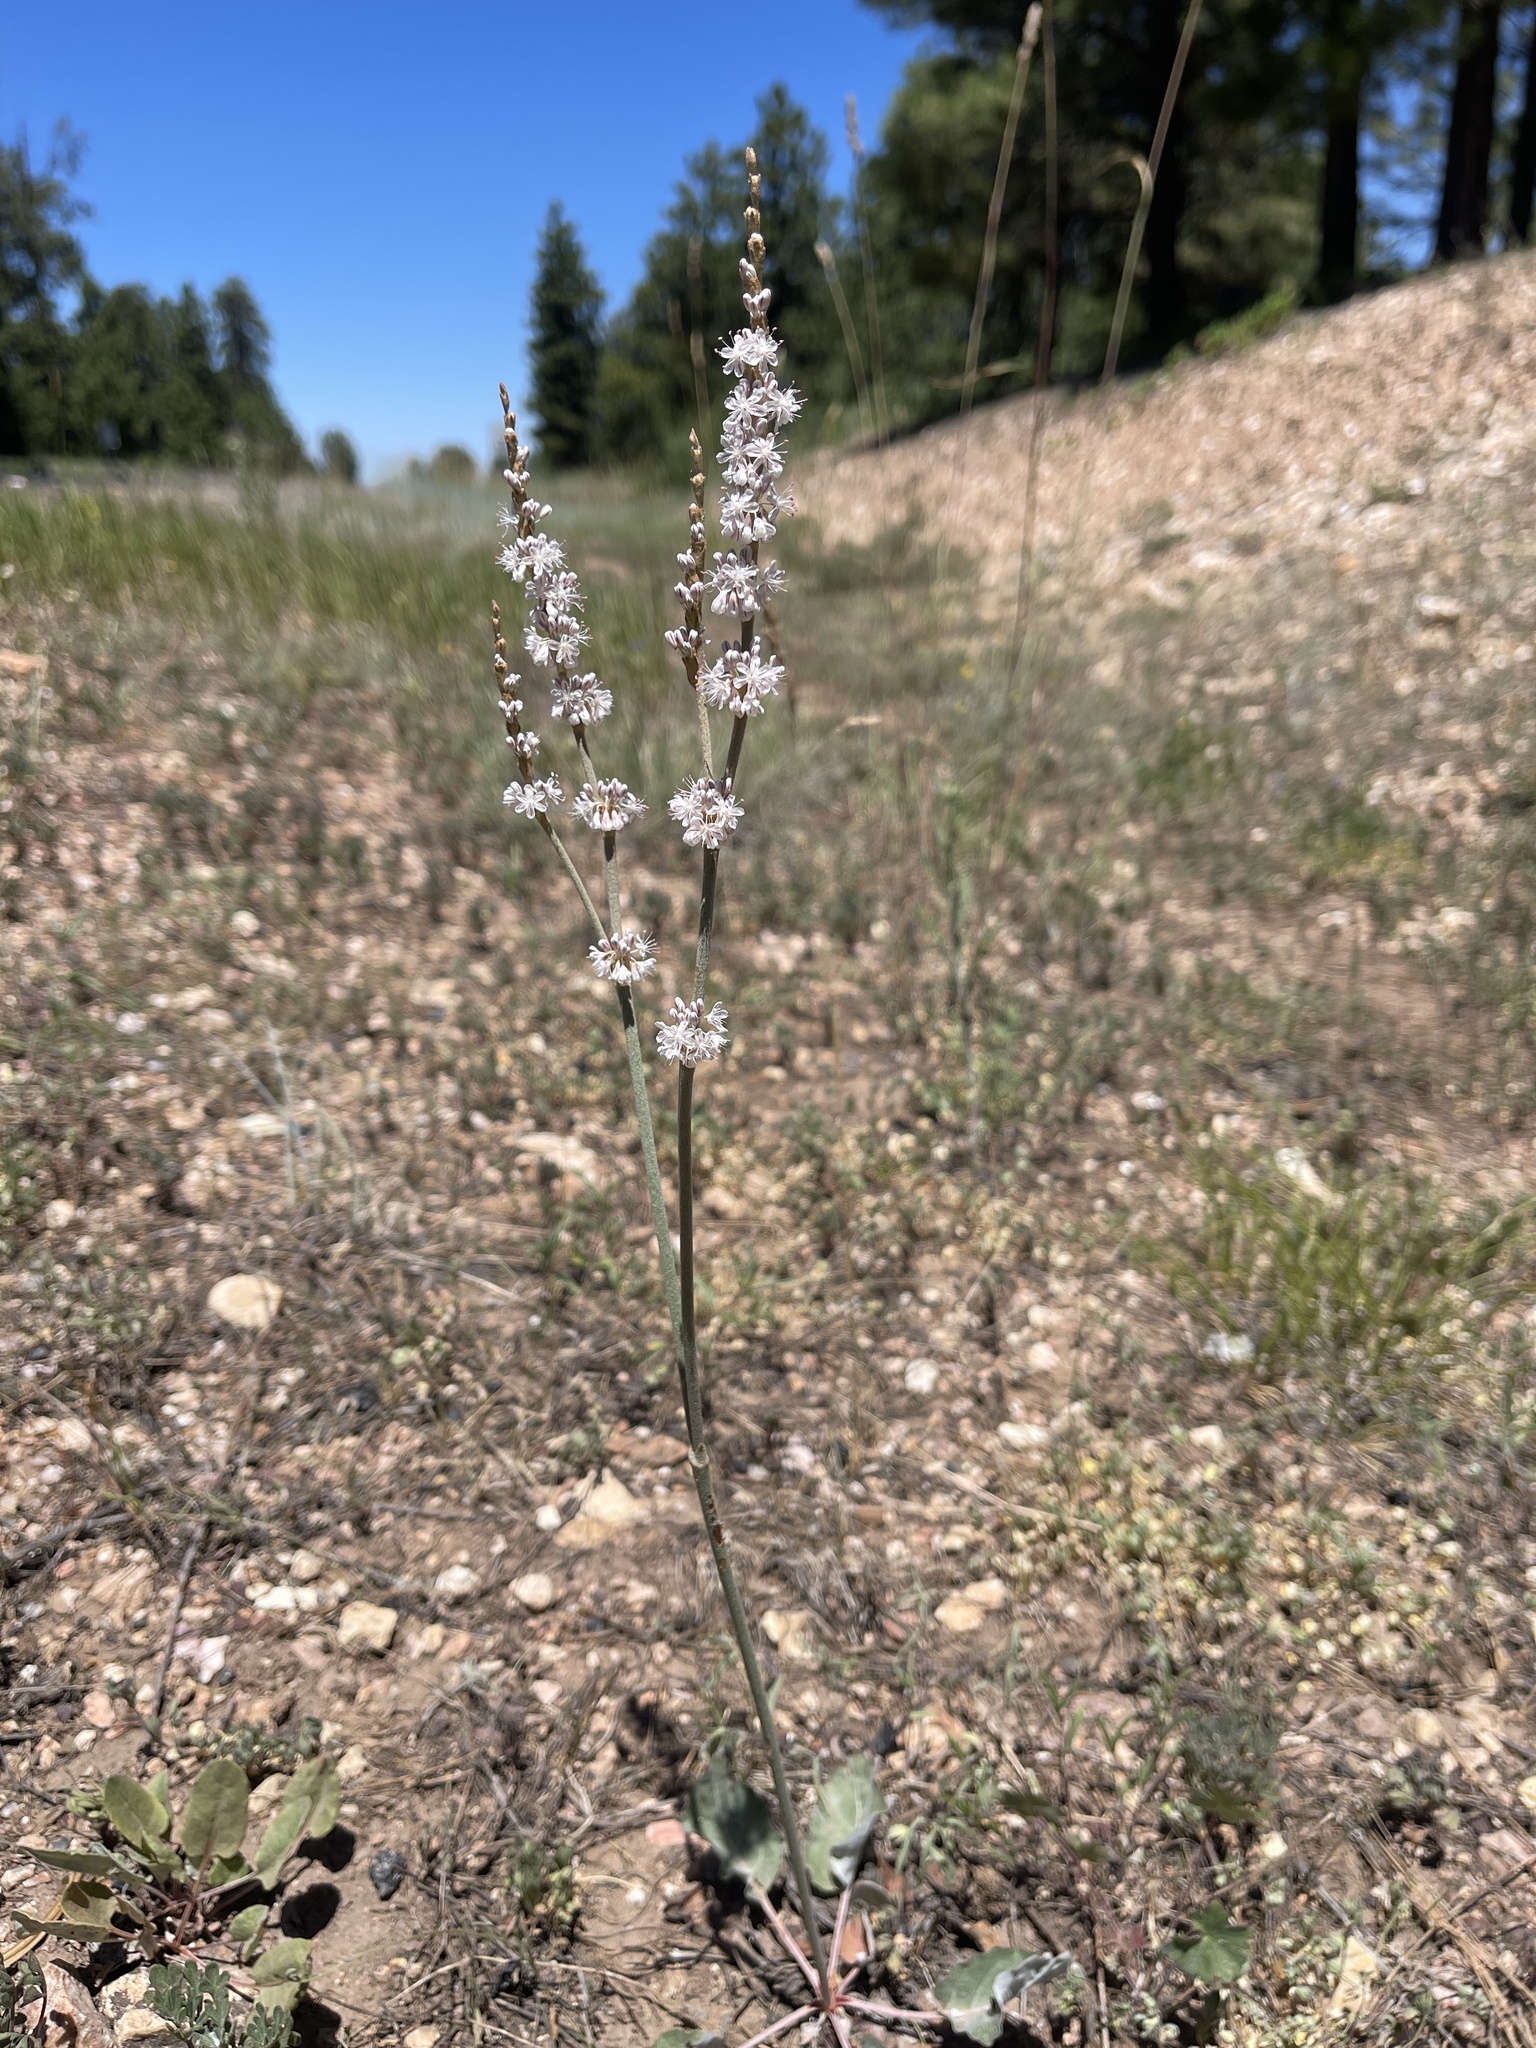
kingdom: Plantae
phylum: Tracheophyta
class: Magnoliopsida
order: Caryophyllales
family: Polygonaceae
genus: Eriogonum
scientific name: Eriogonum racemosum
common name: Redroot wild buckwheat
